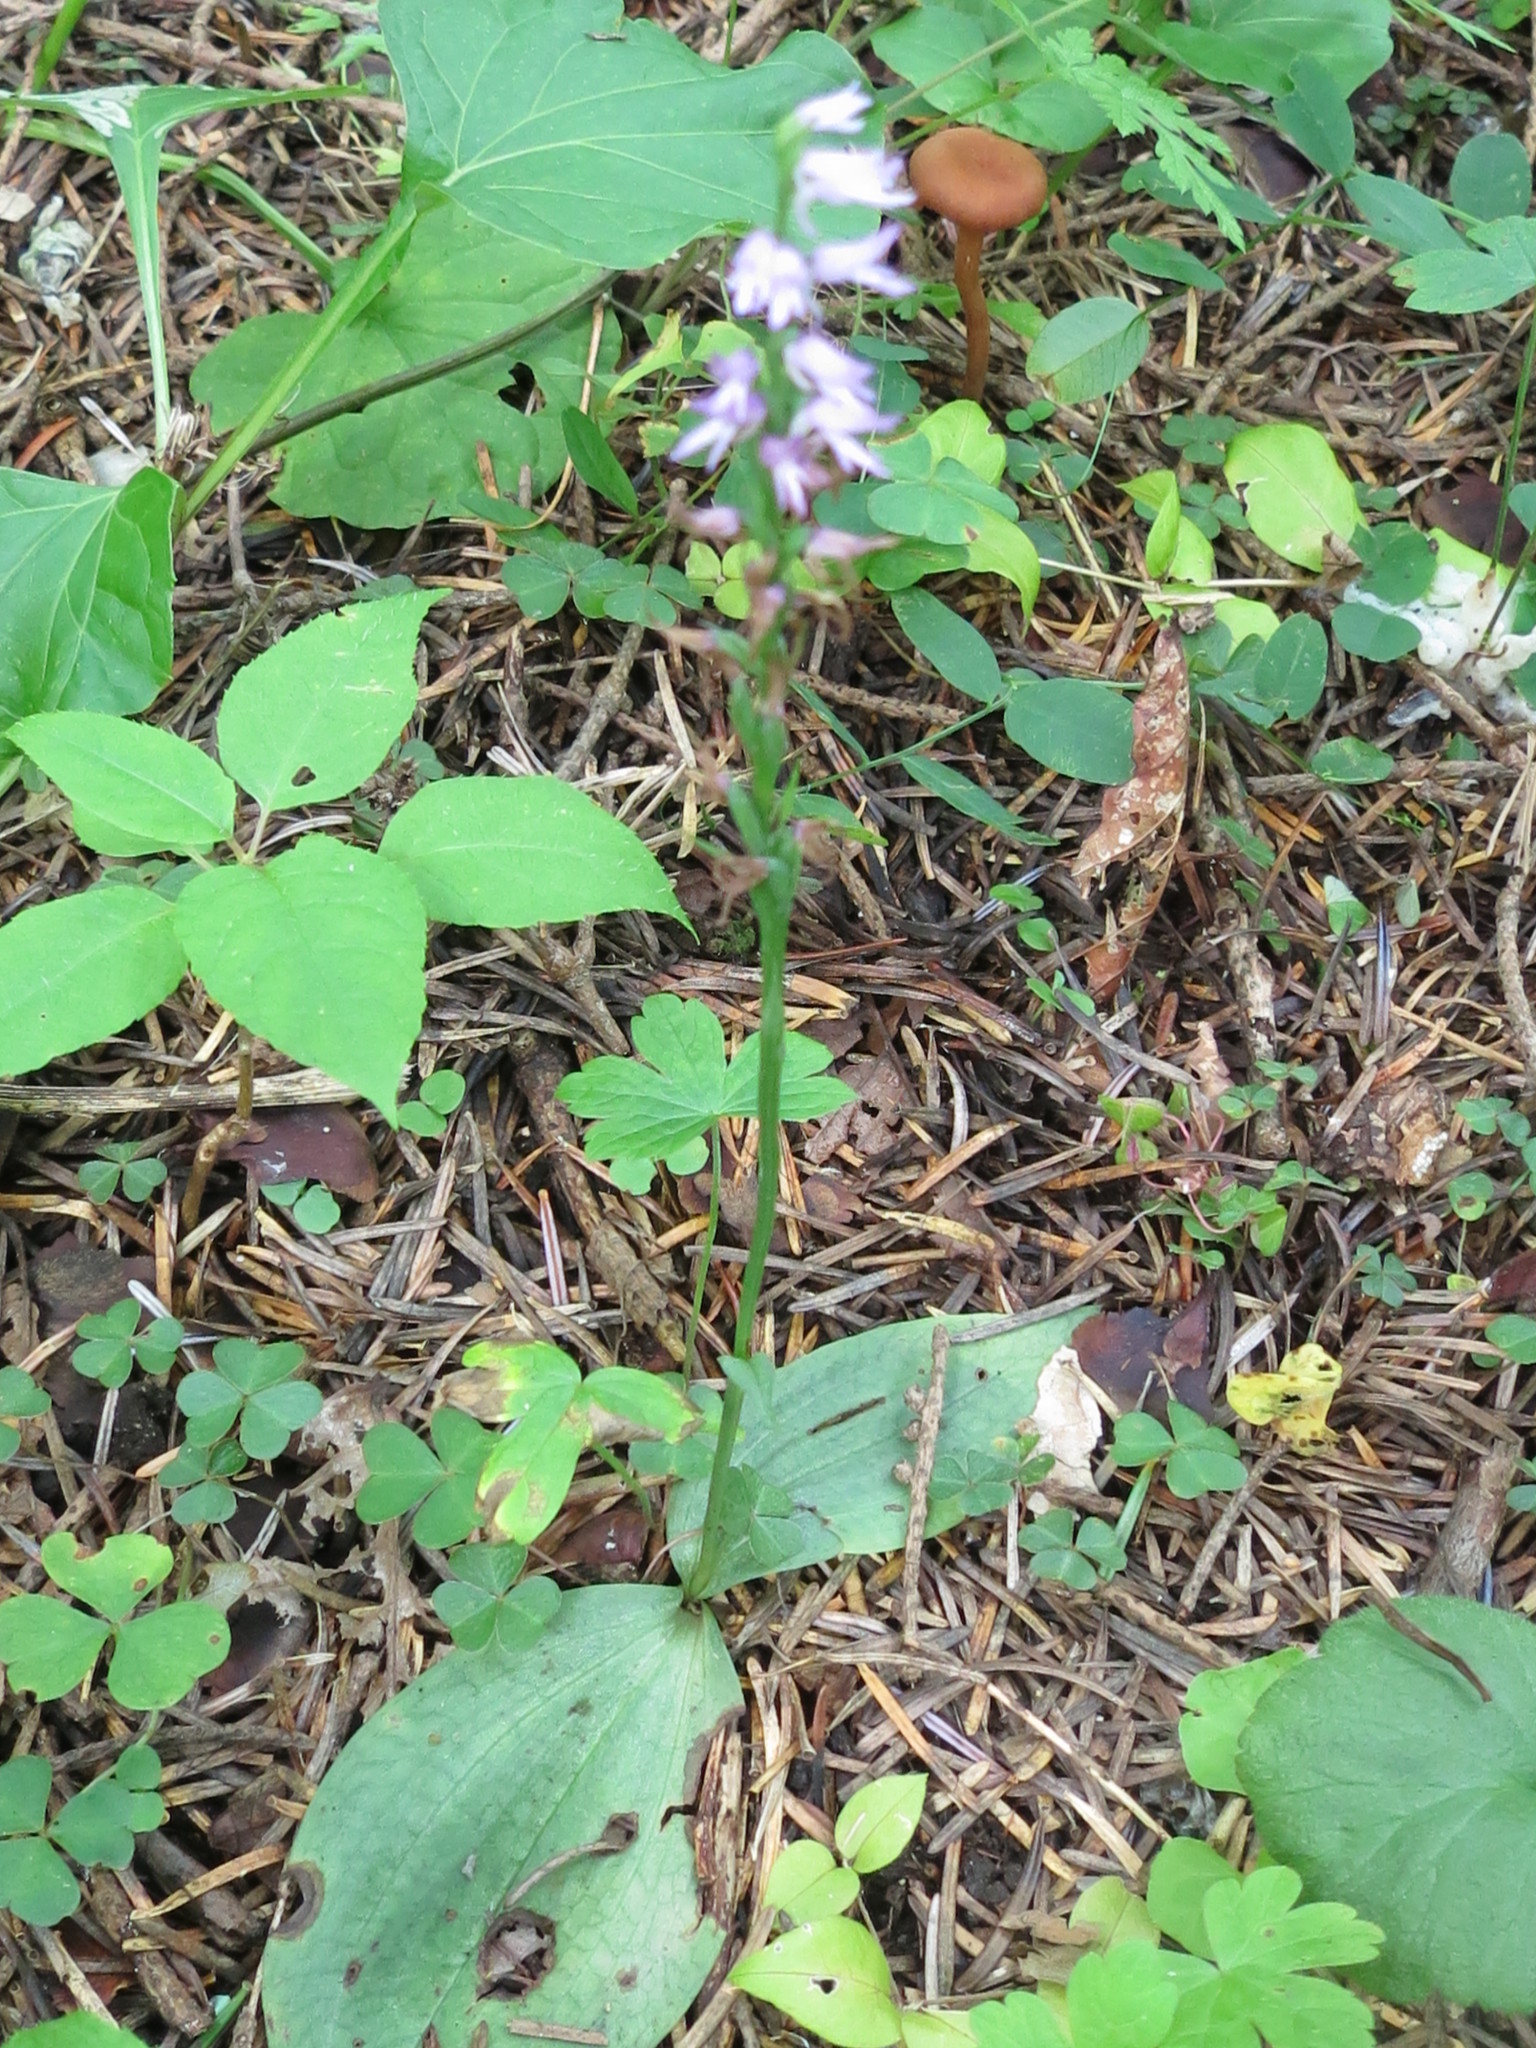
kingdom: Plantae
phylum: Tracheophyta
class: Liliopsida
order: Asparagales
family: Orchidaceae
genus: Hemipilia
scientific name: Hemipilia cucullata
